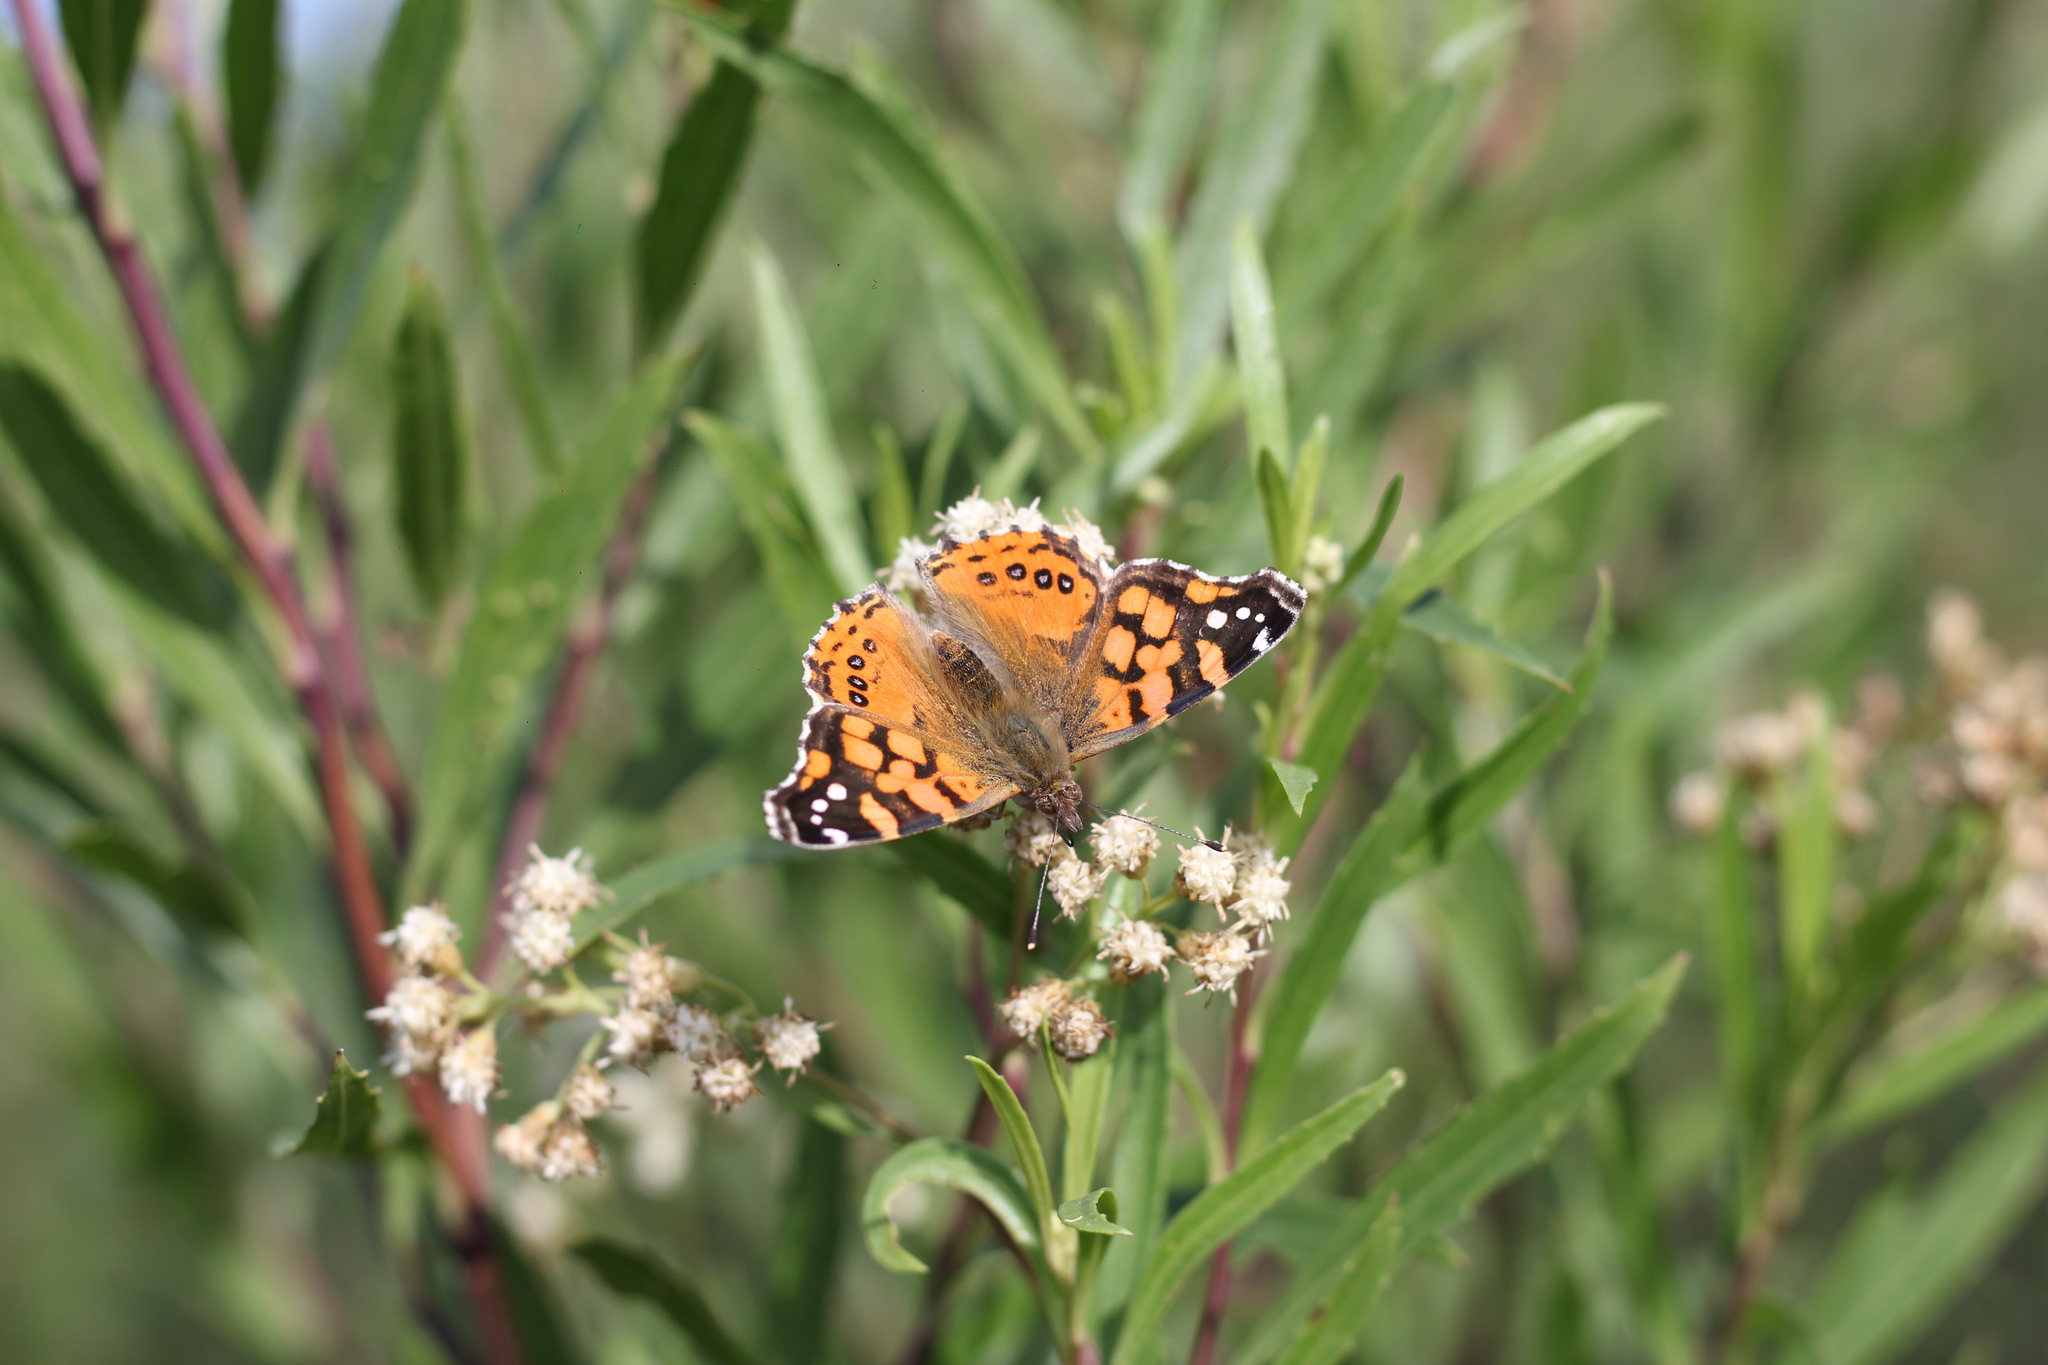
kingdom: Animalia
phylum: Arthropoda
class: Insecta
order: Lepidoptera
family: Nymphalidae
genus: Vanessa
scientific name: Vanessa carye
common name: Subtropical lady
